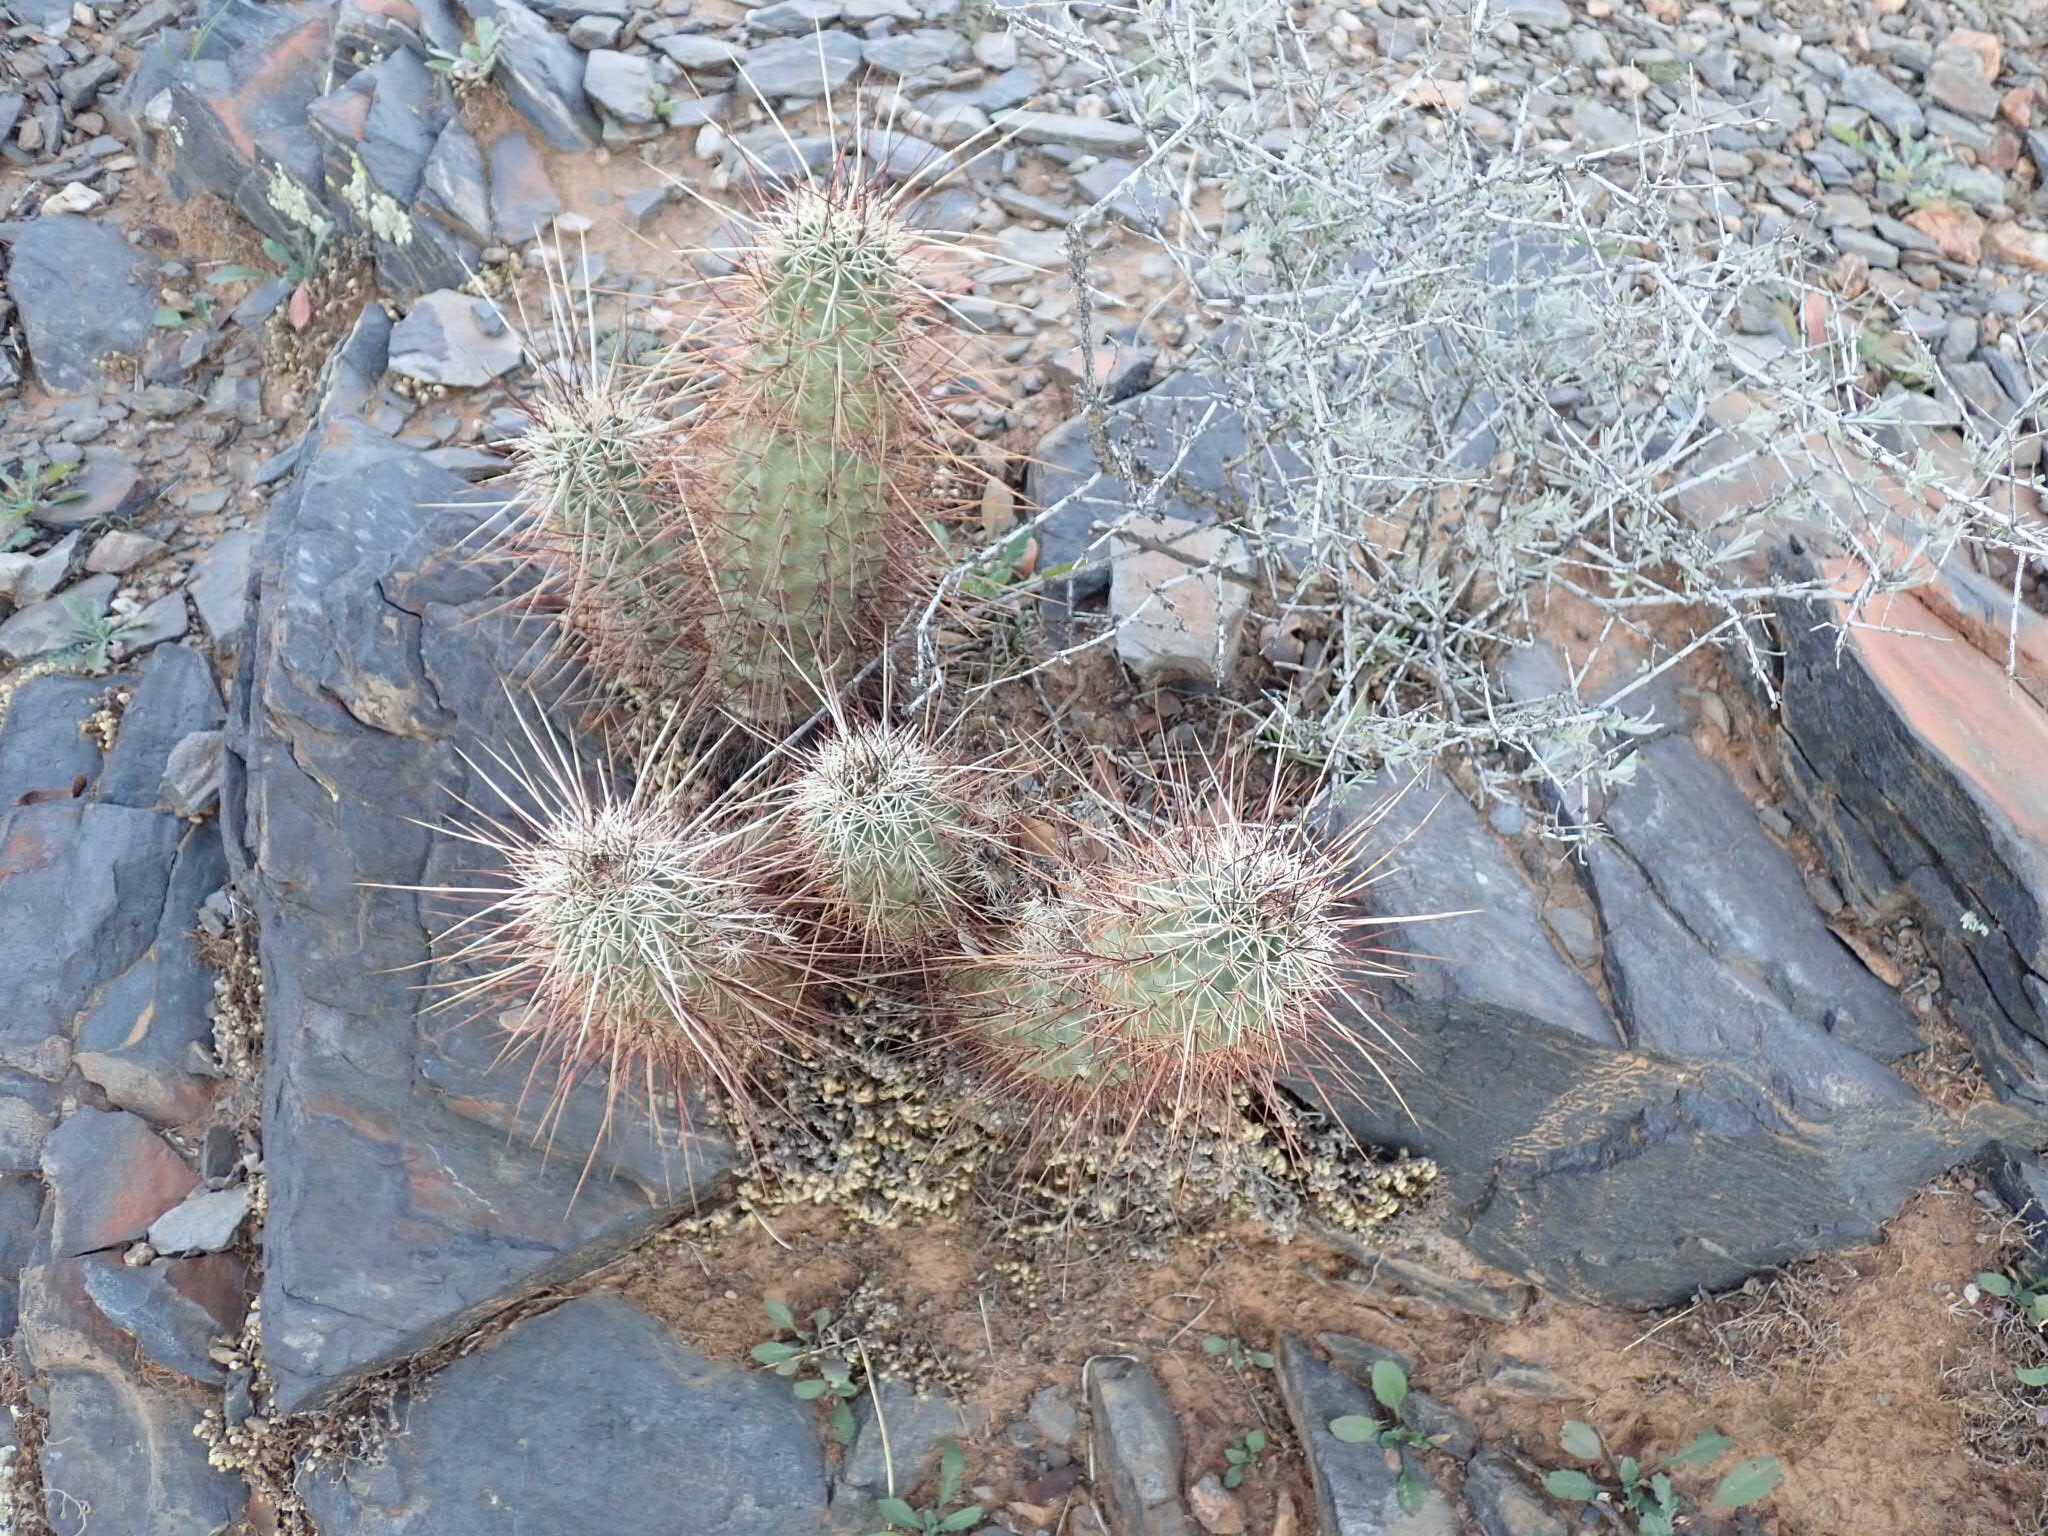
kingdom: Plantae
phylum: Tracheophyta
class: Magnoliopsida
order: Caryophyllales
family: Cactaceae
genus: Echinocereus
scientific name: Echinocereus engelmannii
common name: Engelmann's hedgehog cactus
